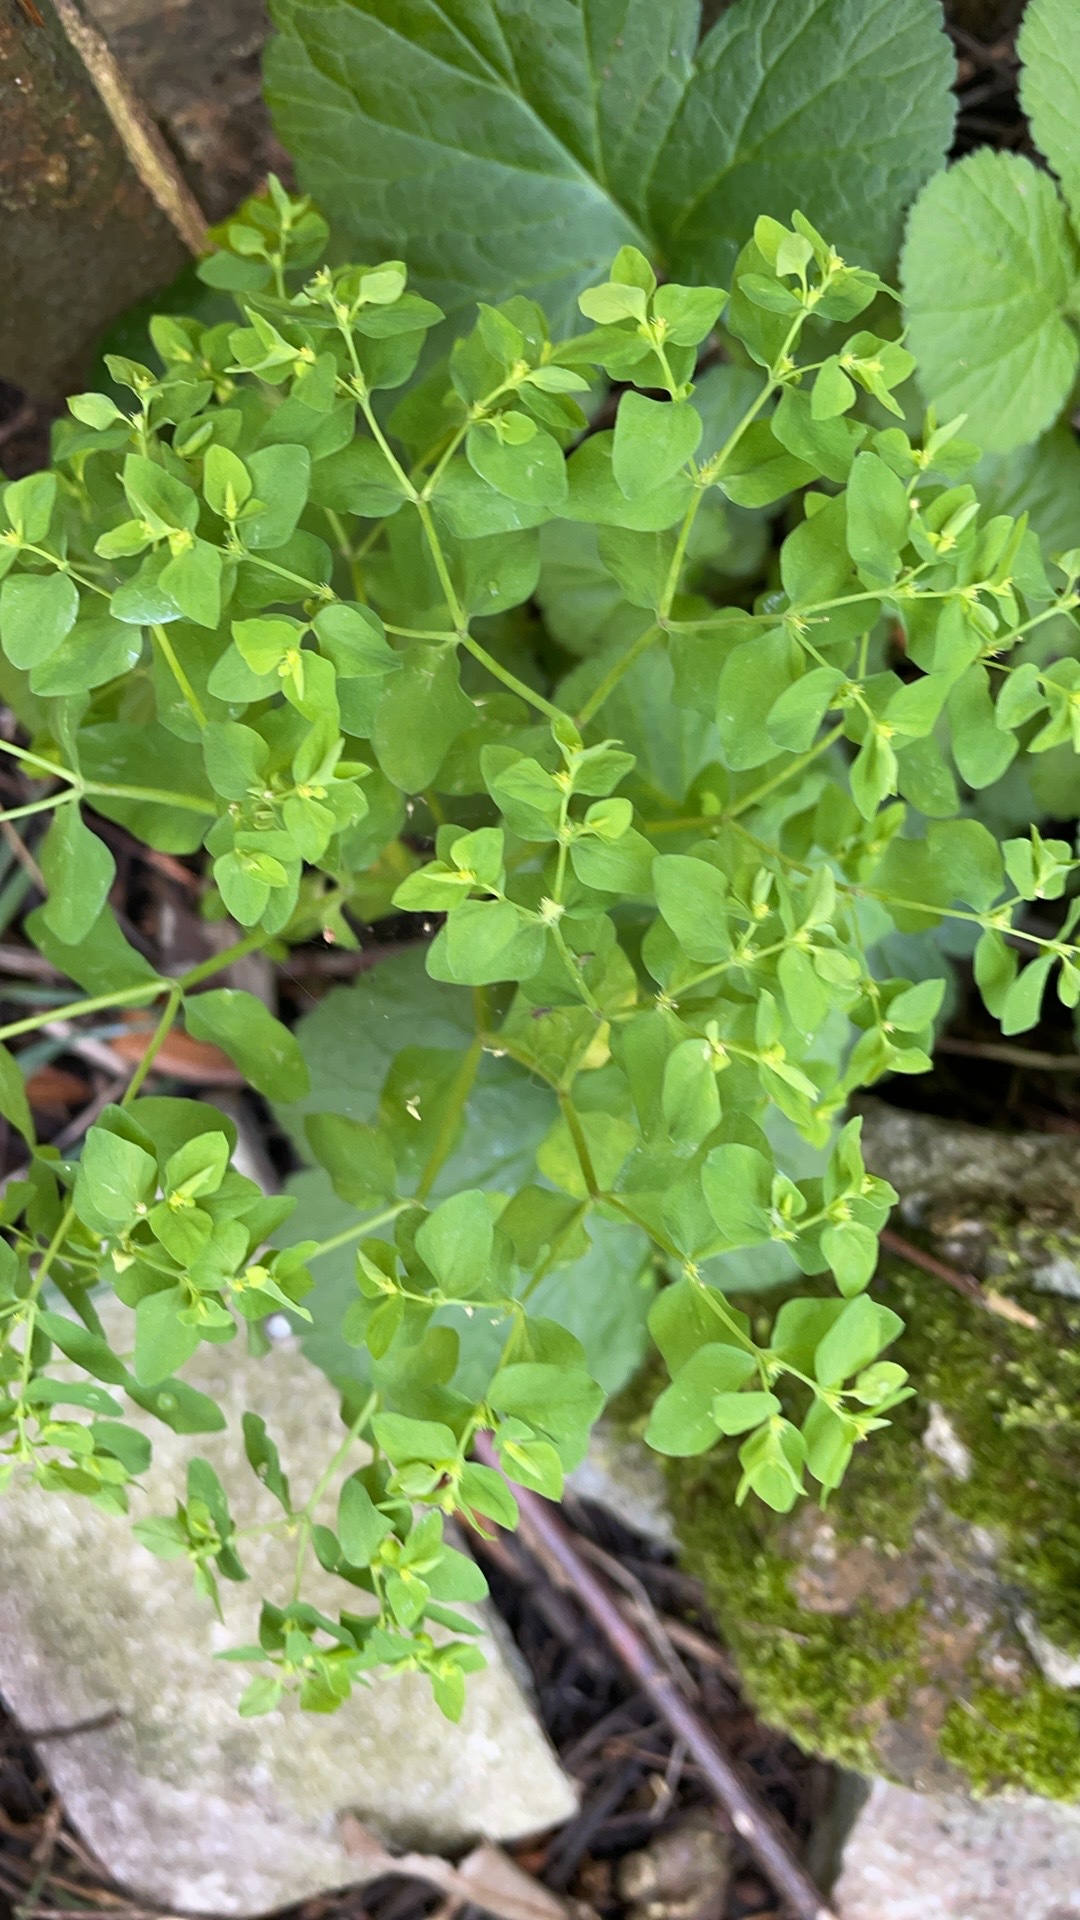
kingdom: Plantae
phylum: Tracheophyta
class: Magnoliopsida
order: Malpighiales
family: Euphorbiaceae
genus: Euphorbia
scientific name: Euphorbia peplus
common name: Petty spurge
